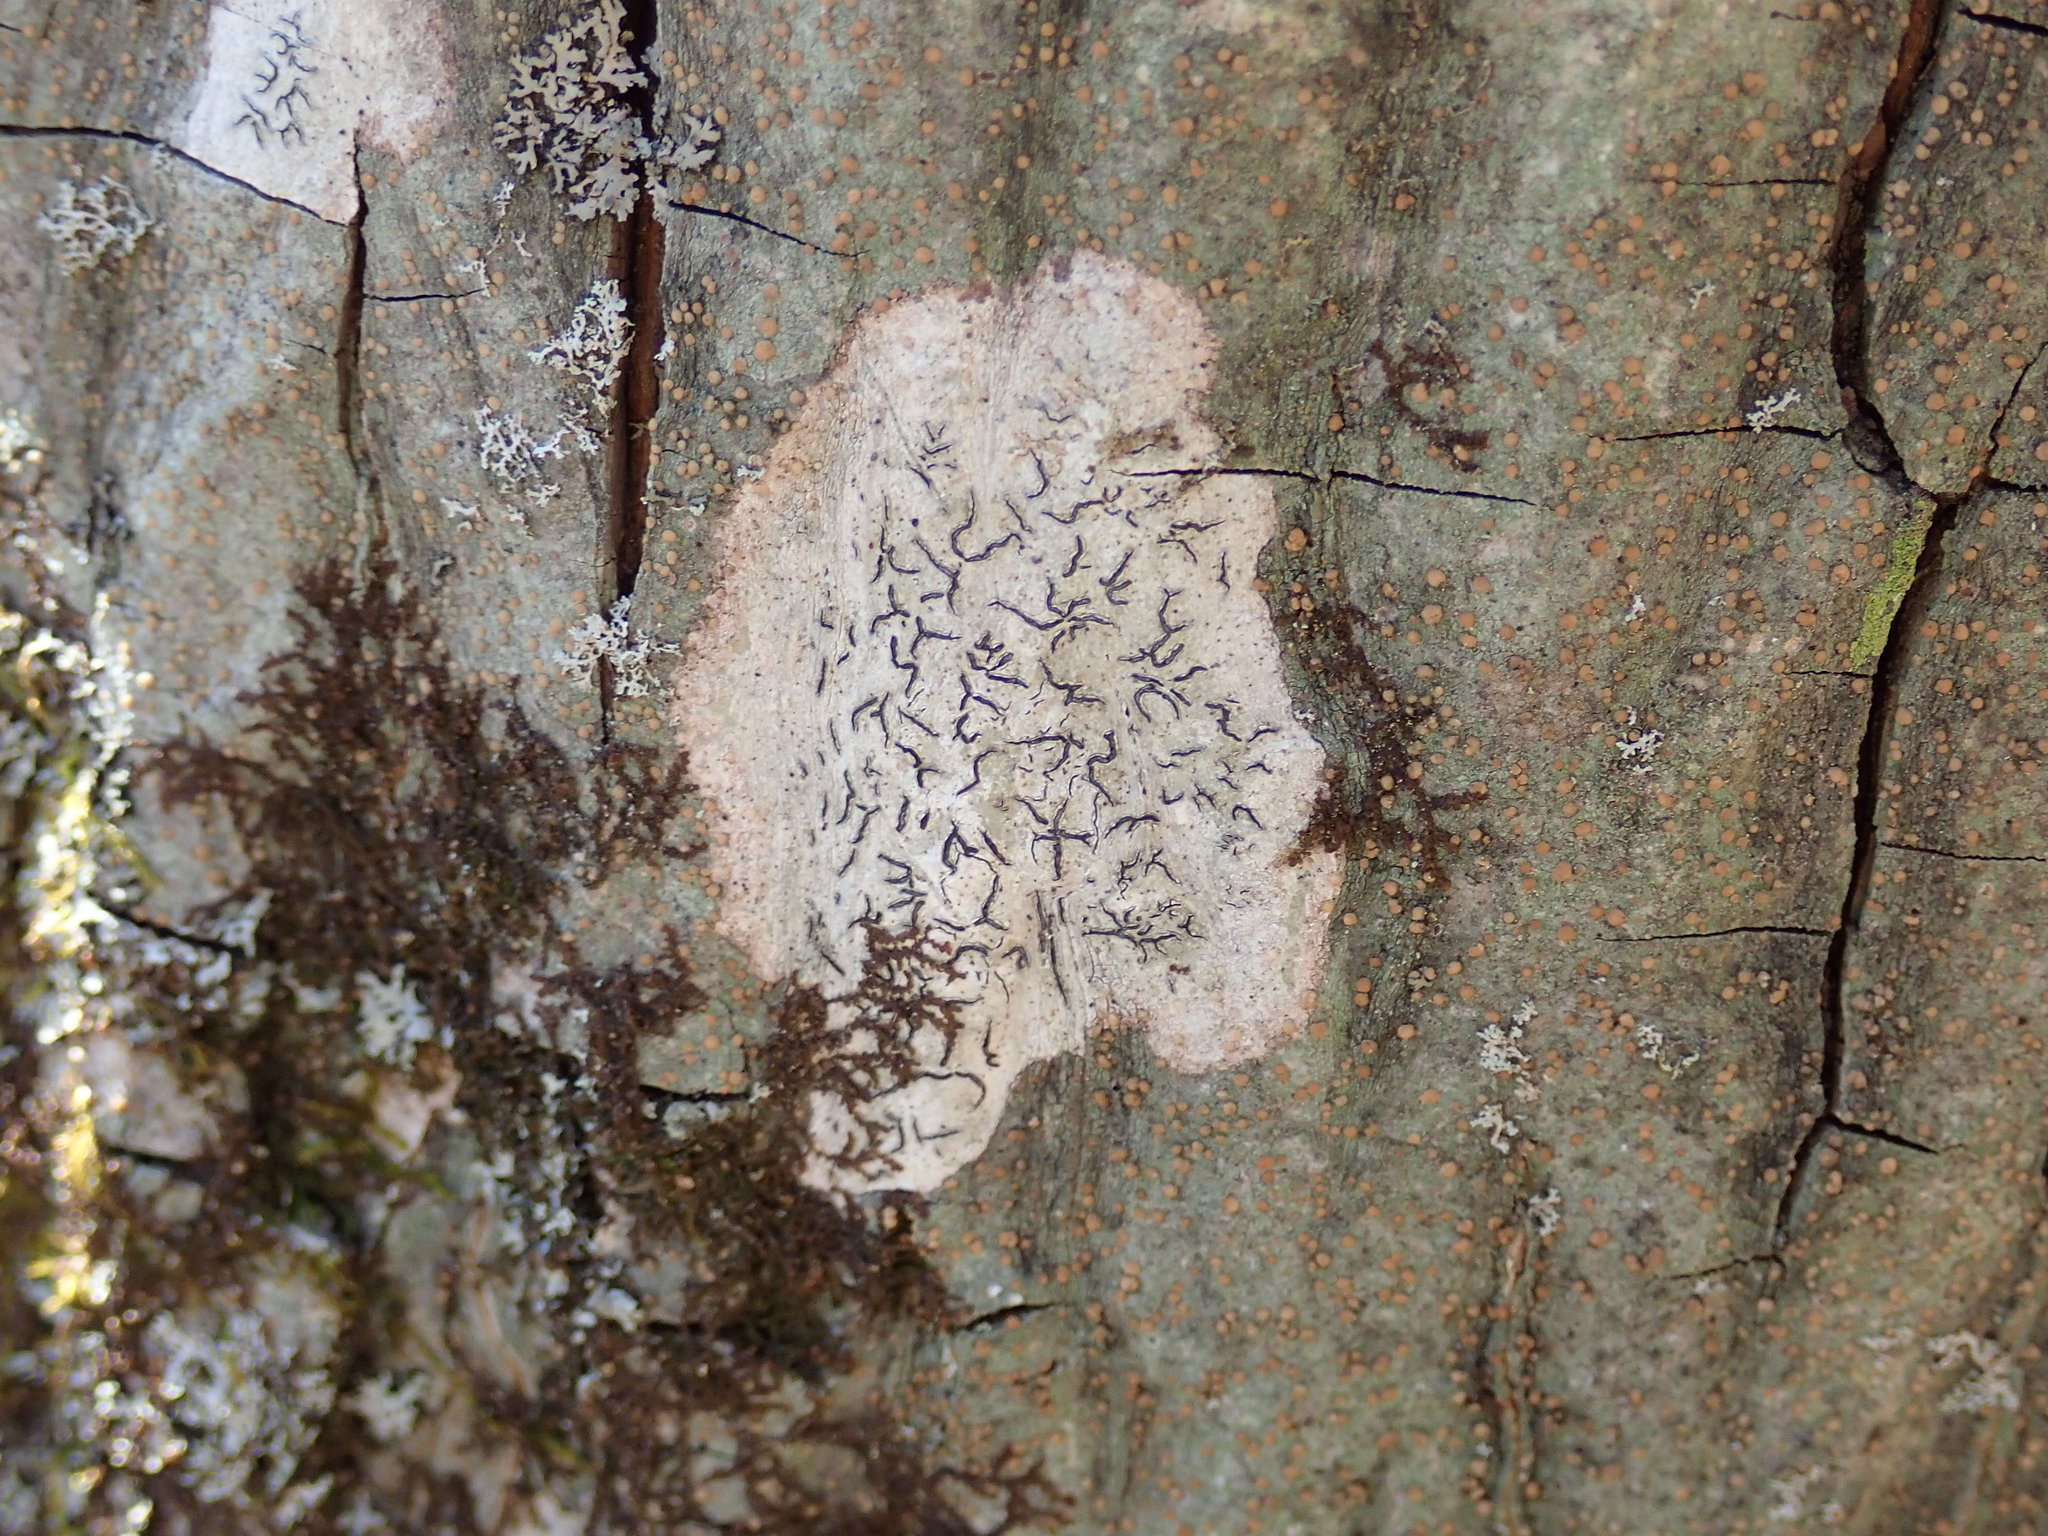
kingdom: Fungi
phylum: Ascomycota
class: Lecanoromycetes
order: Ostropales
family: Graphidaceae
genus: Graphis
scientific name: Graphis scripta
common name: Script lichen
